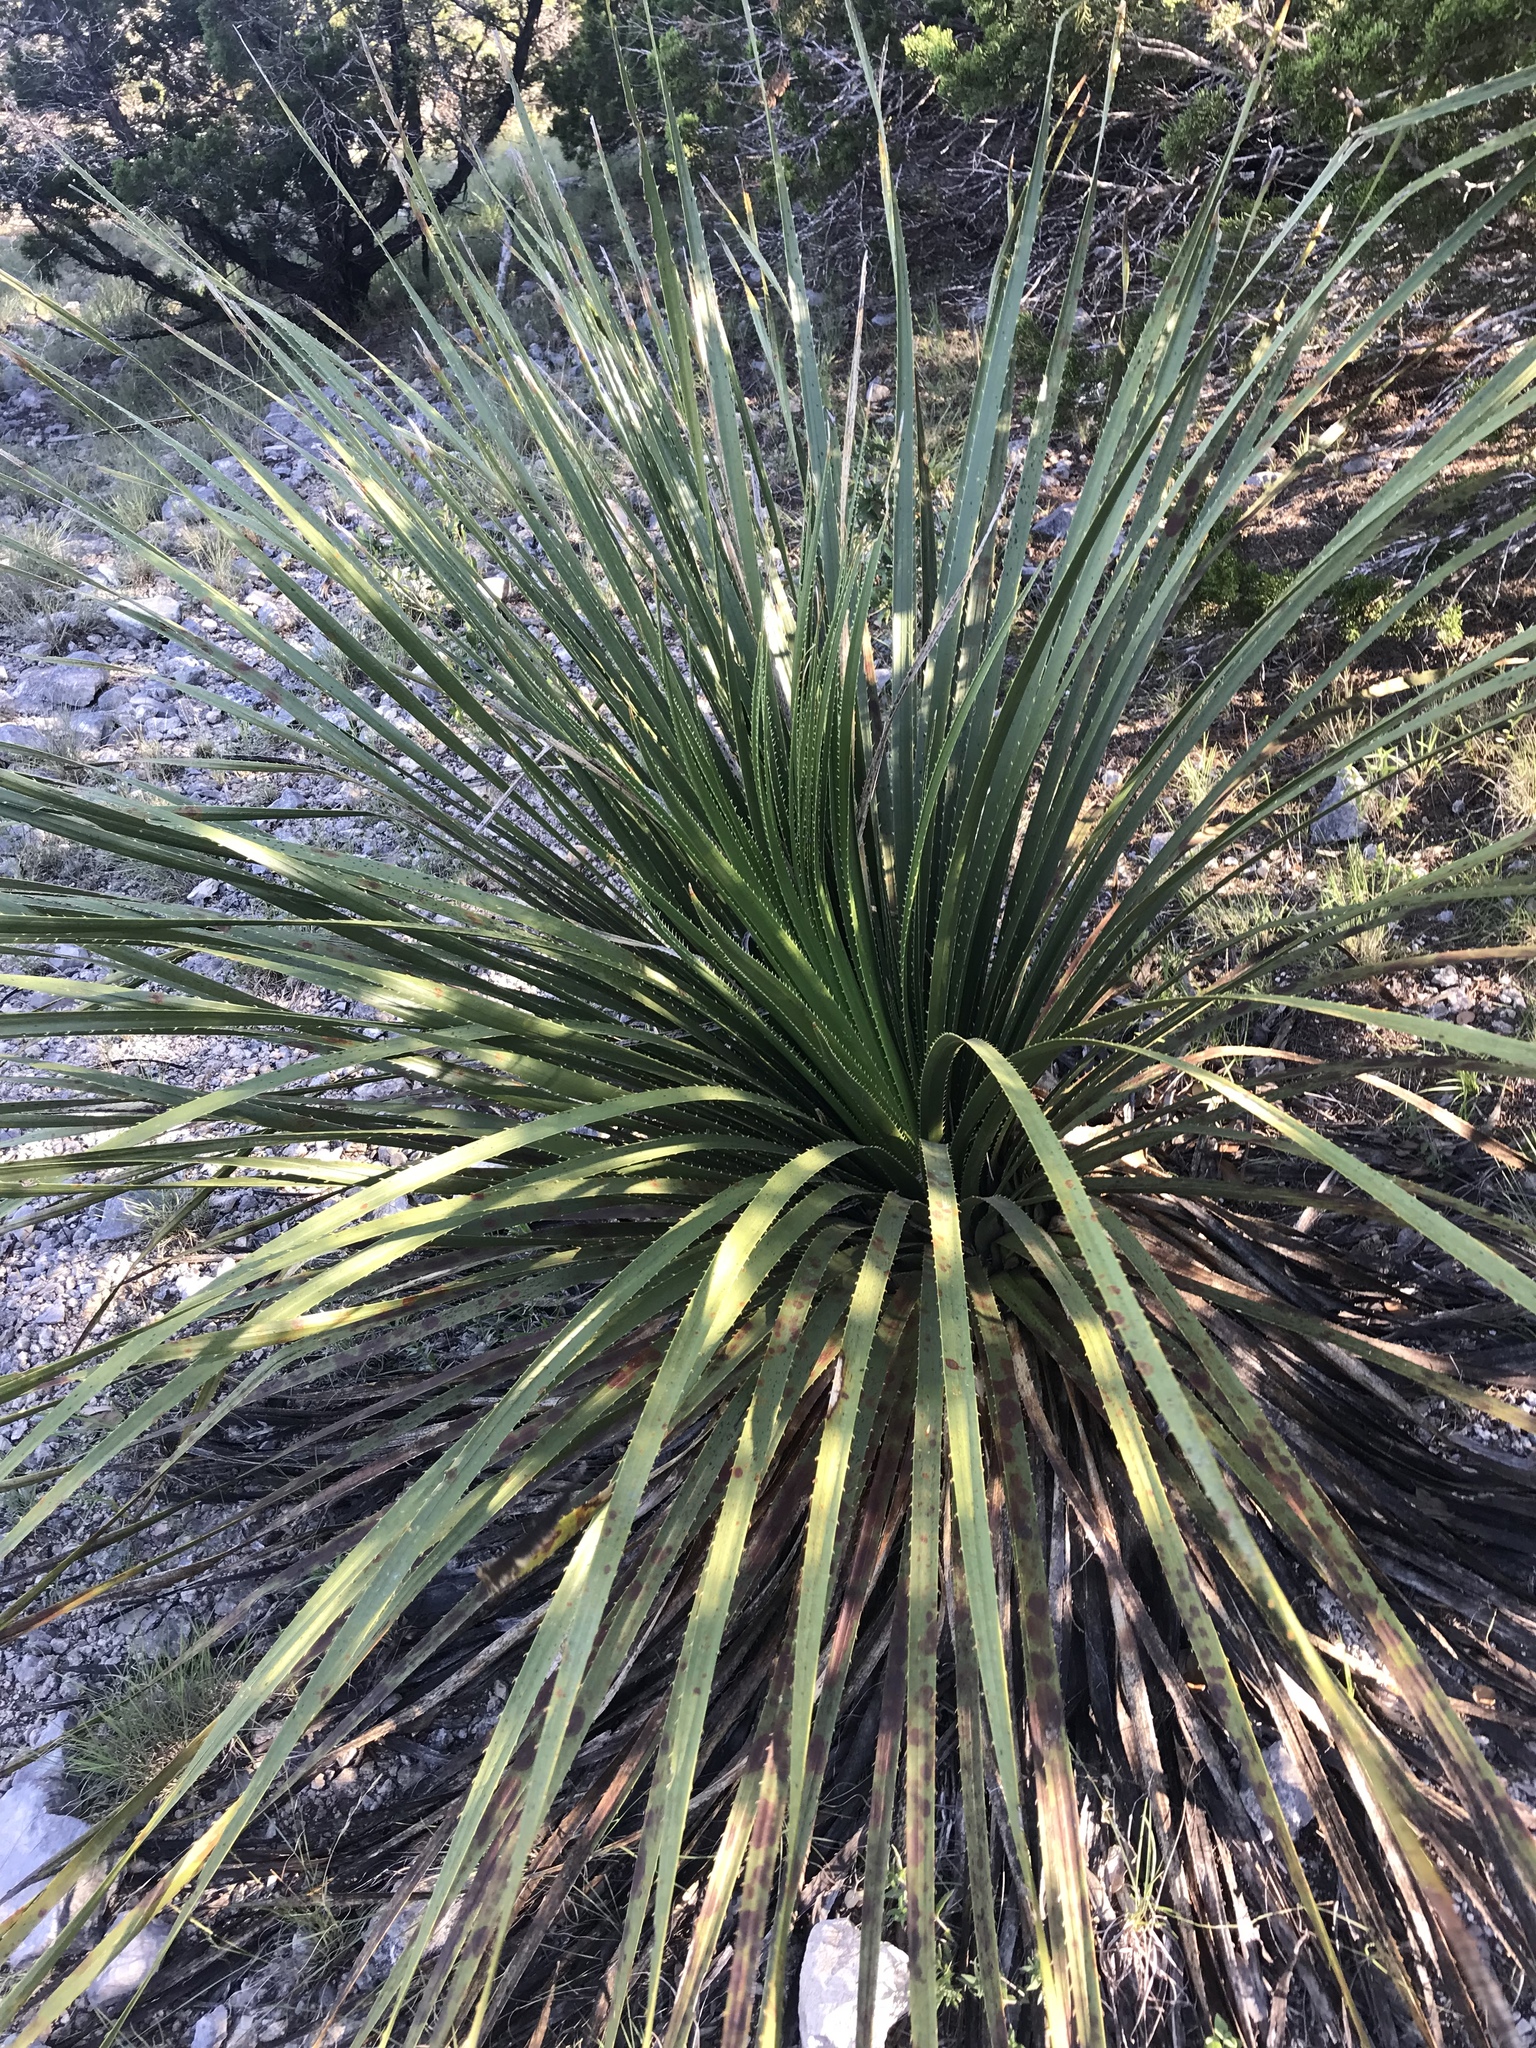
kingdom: Plantae
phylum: Tracheophyta
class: Liliopsida
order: Asparagales
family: Asparagaceae
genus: Dasylirion
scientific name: Dasylirion texanum
